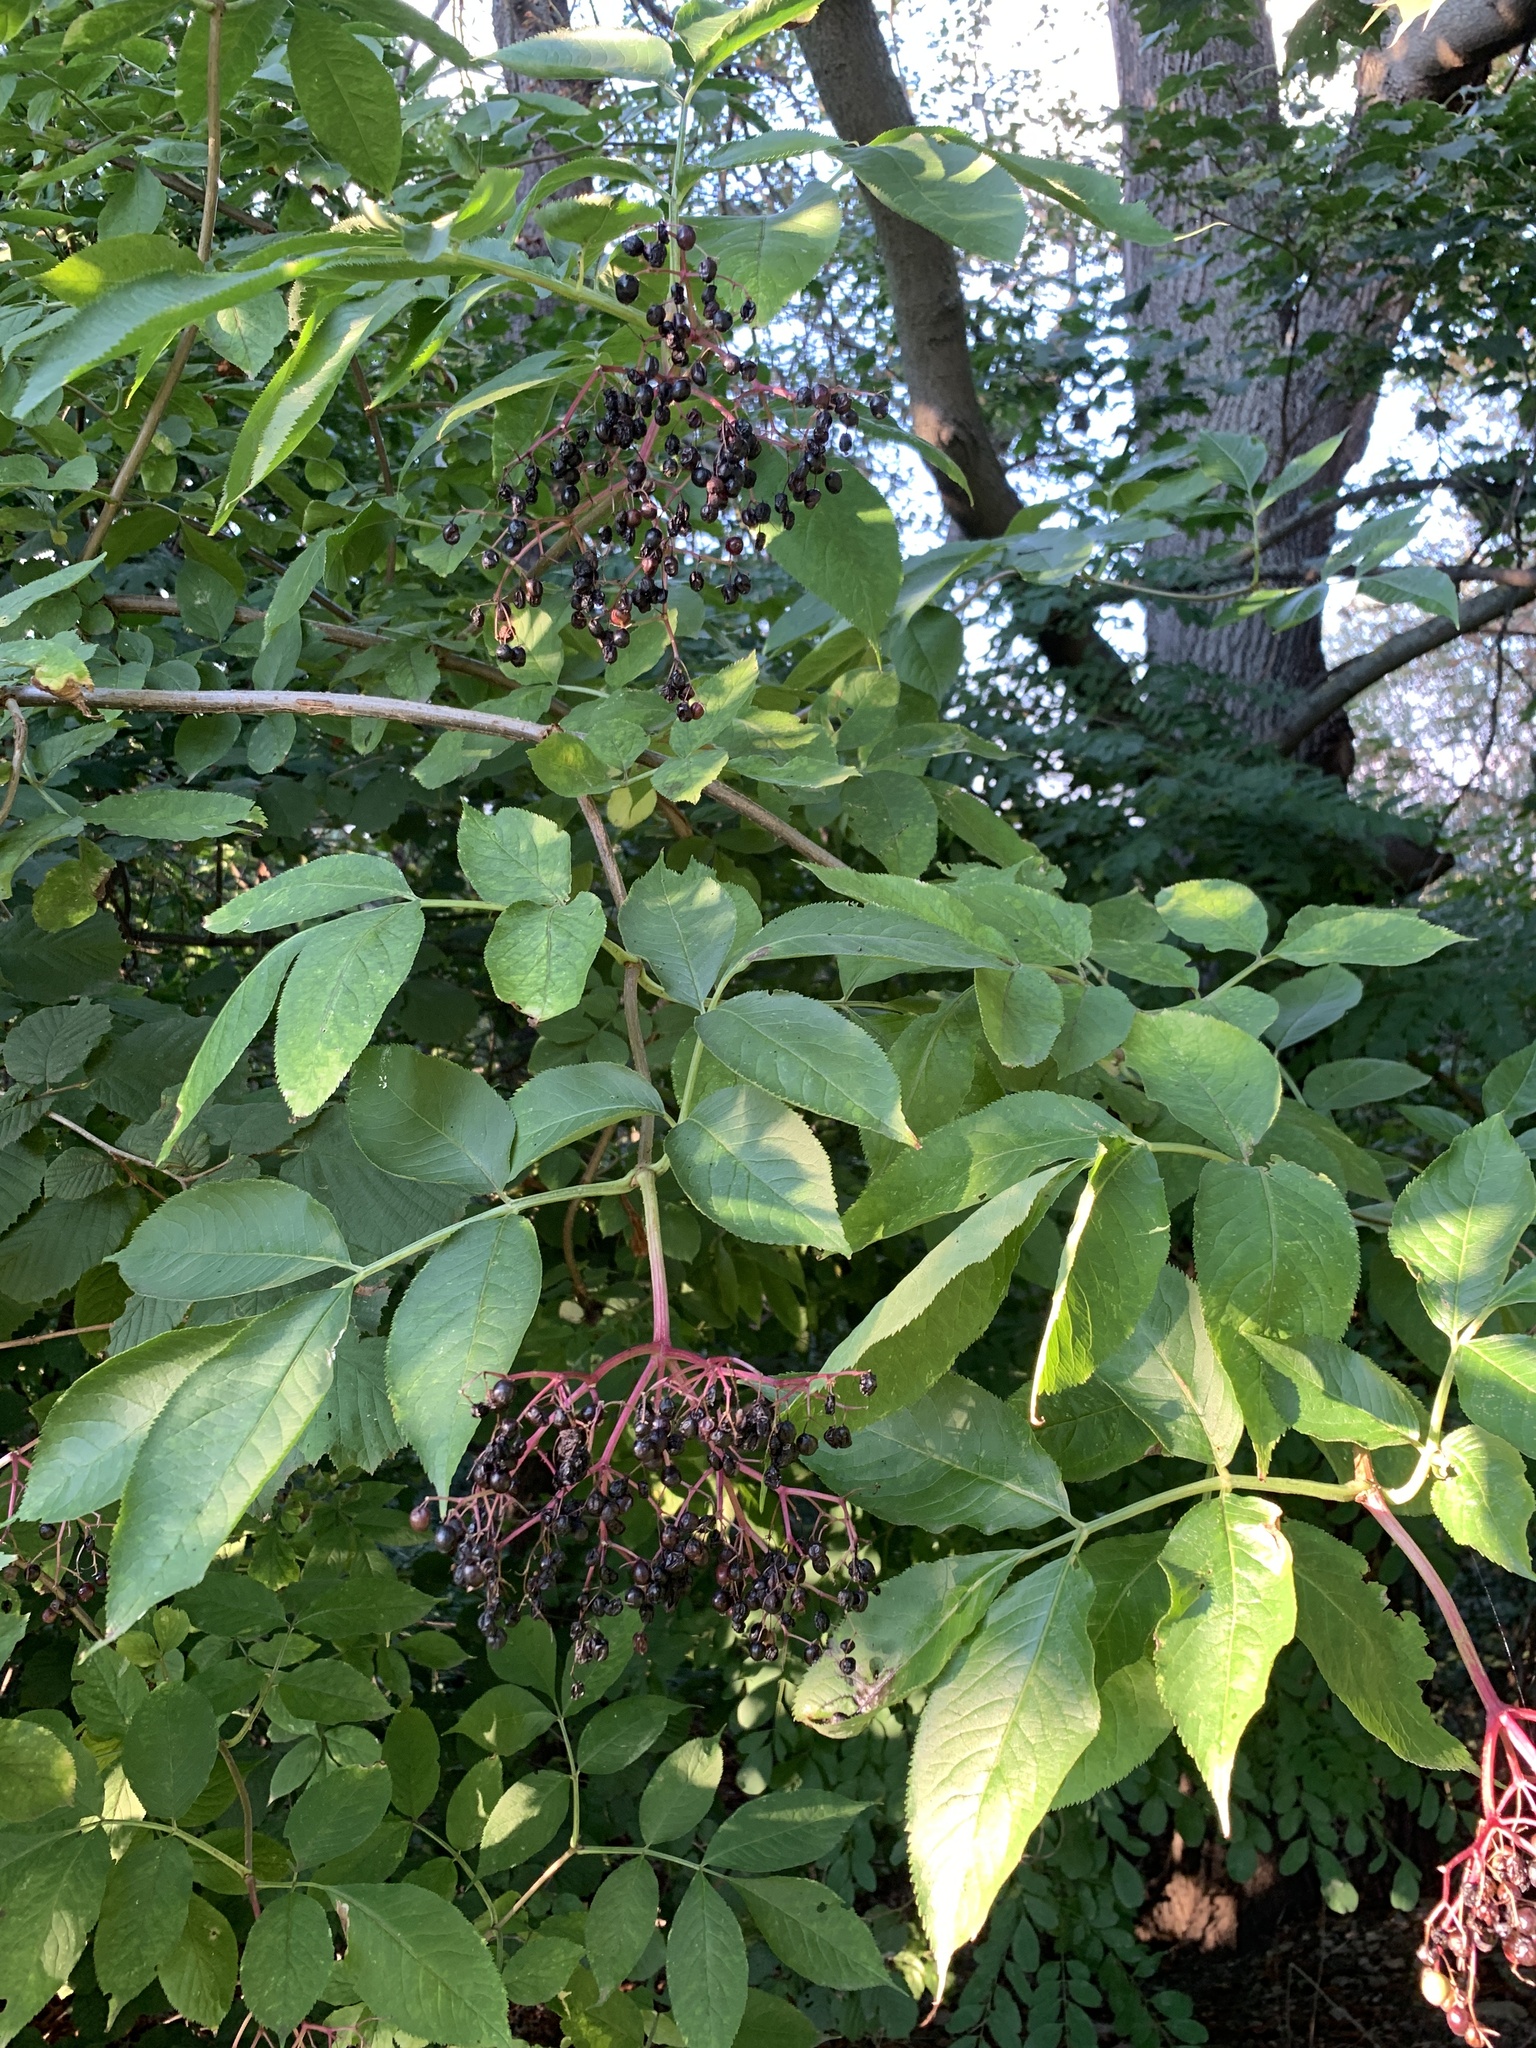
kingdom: Plantae
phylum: Tracheophyta
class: Magnoliopsida
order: Dipsacales
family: Viburnaceae
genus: Sambucus
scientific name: Sambucus nigra
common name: Elder
